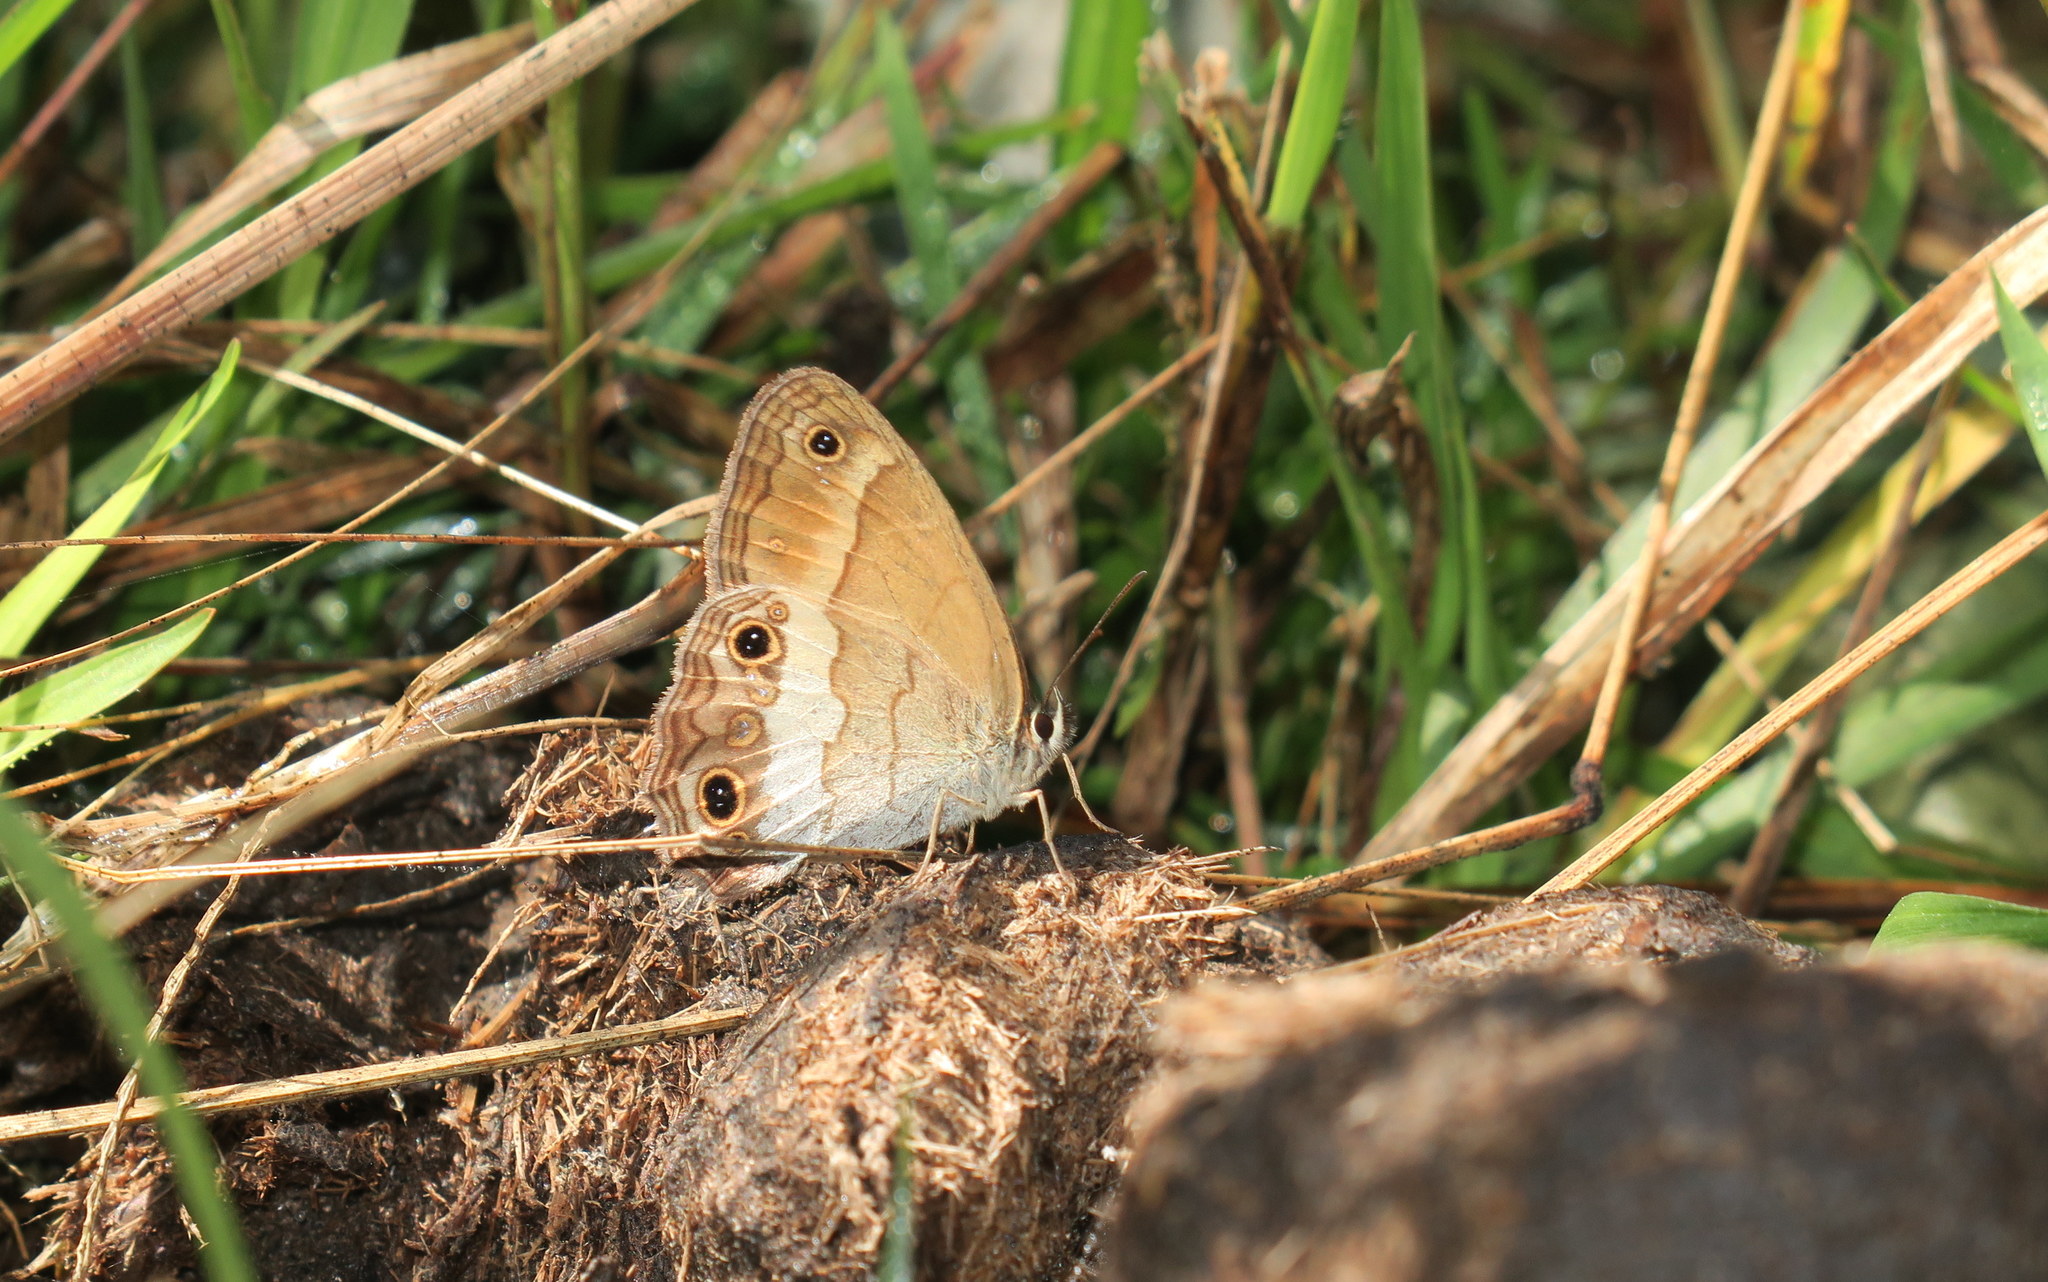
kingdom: Animalia
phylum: Arthropoda
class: Insecta
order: Lepidoptera
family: Nymphalidae
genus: Graphita
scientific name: Graphita griphe
